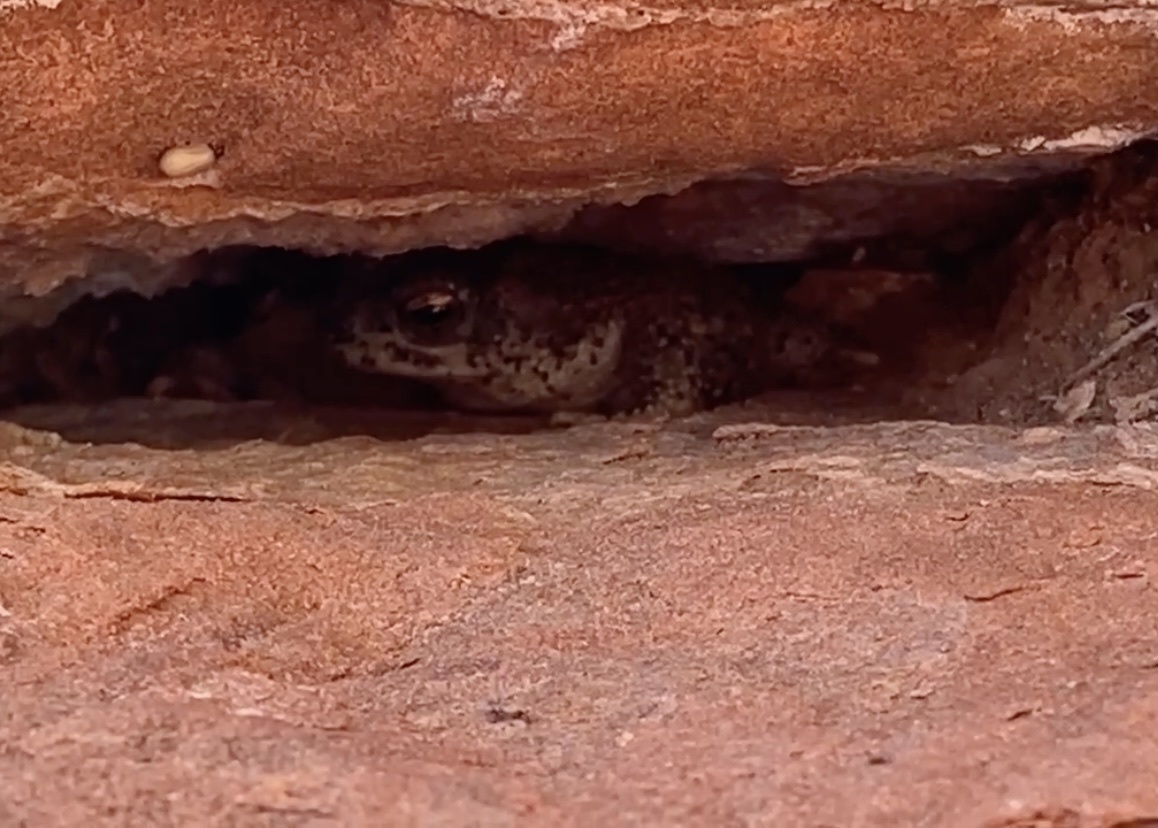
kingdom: Animalia
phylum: Chordata
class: Amphibia
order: Anura
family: Bufonidae
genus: Anaxyrus
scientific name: Anaxyrus punctatus
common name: Red-spotted toad
